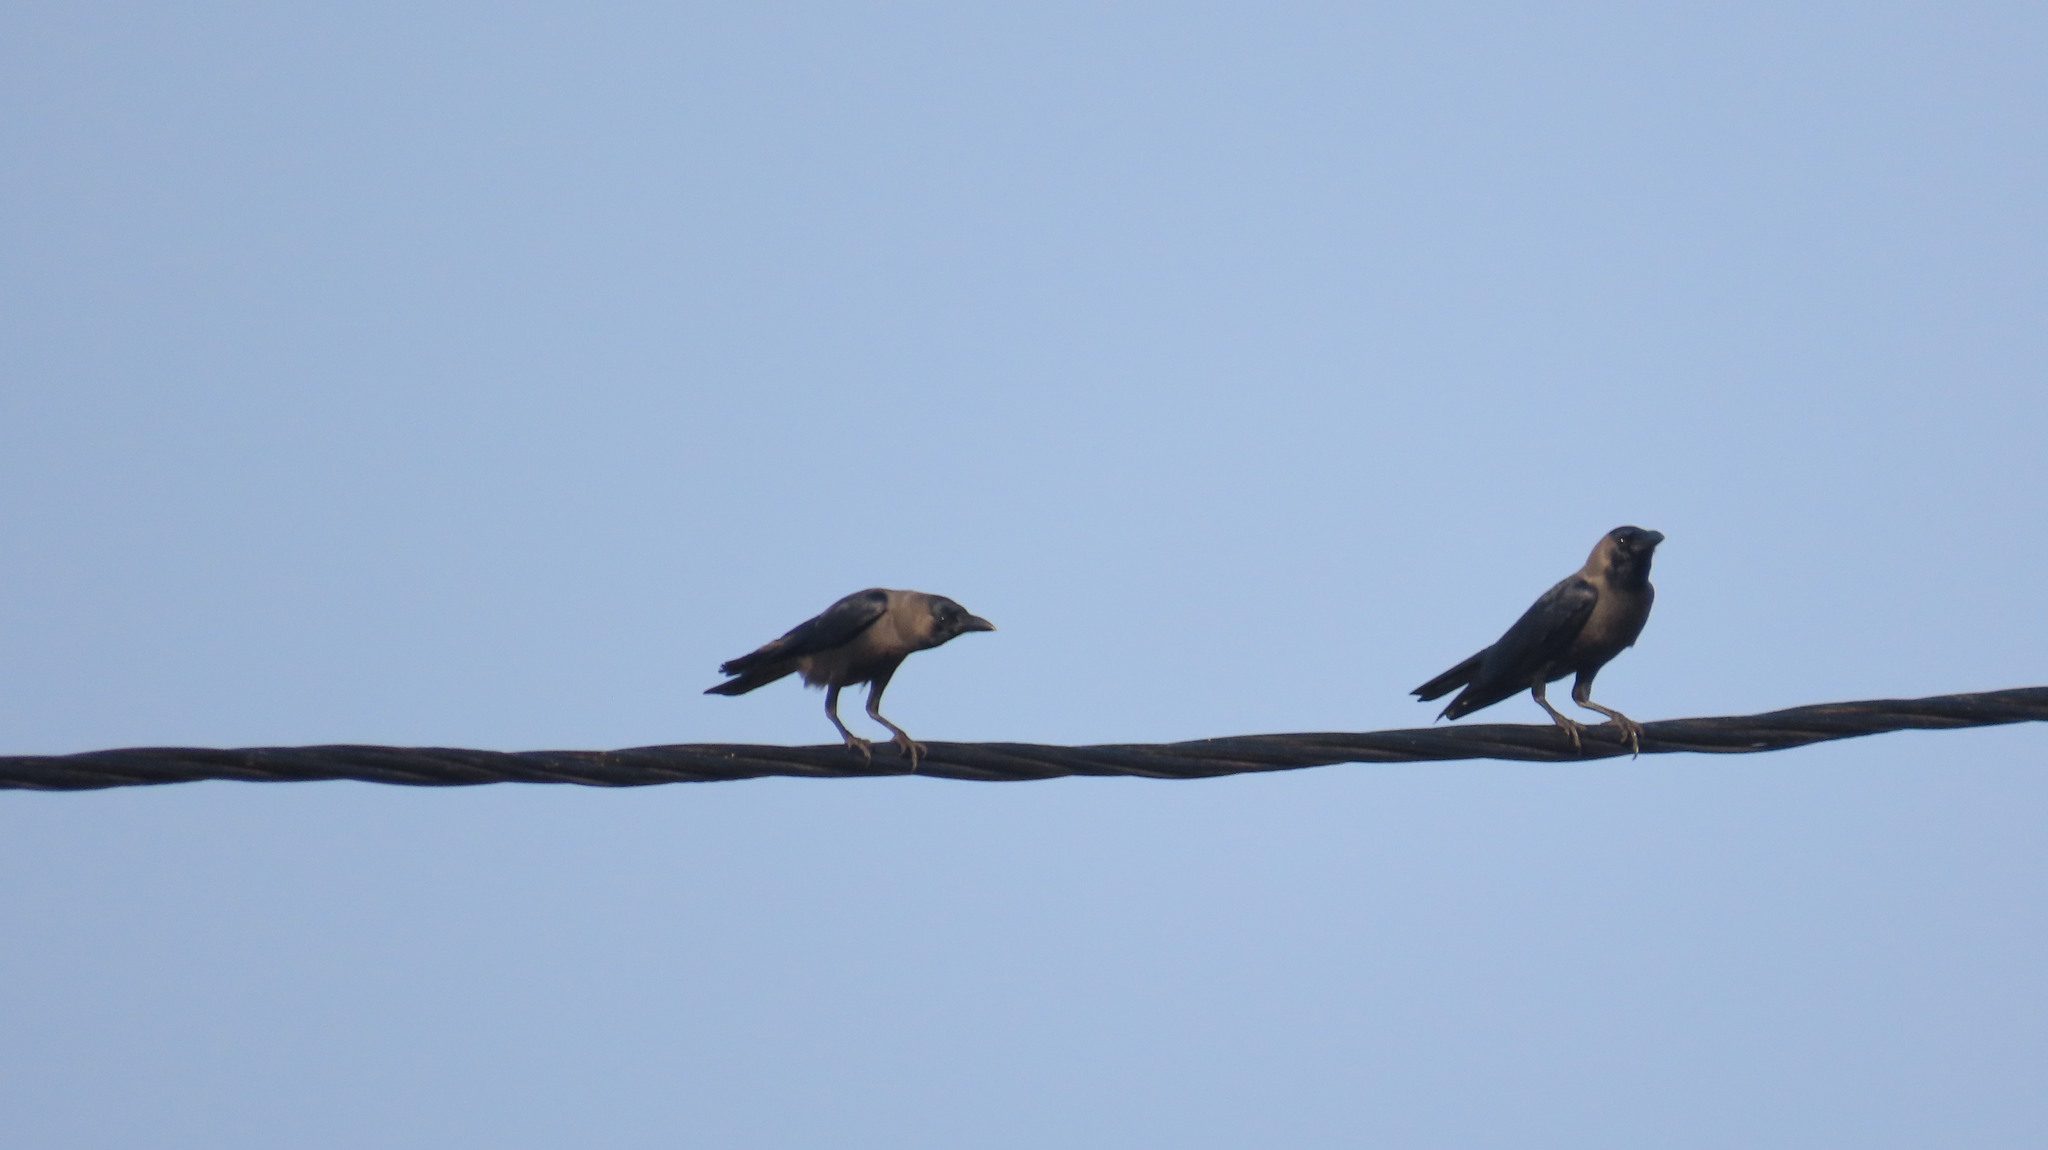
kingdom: Animalia
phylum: Chordata
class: Aves
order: Passeriformes
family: Corvidae
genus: Corvus
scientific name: Corvus splendens
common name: House crow
